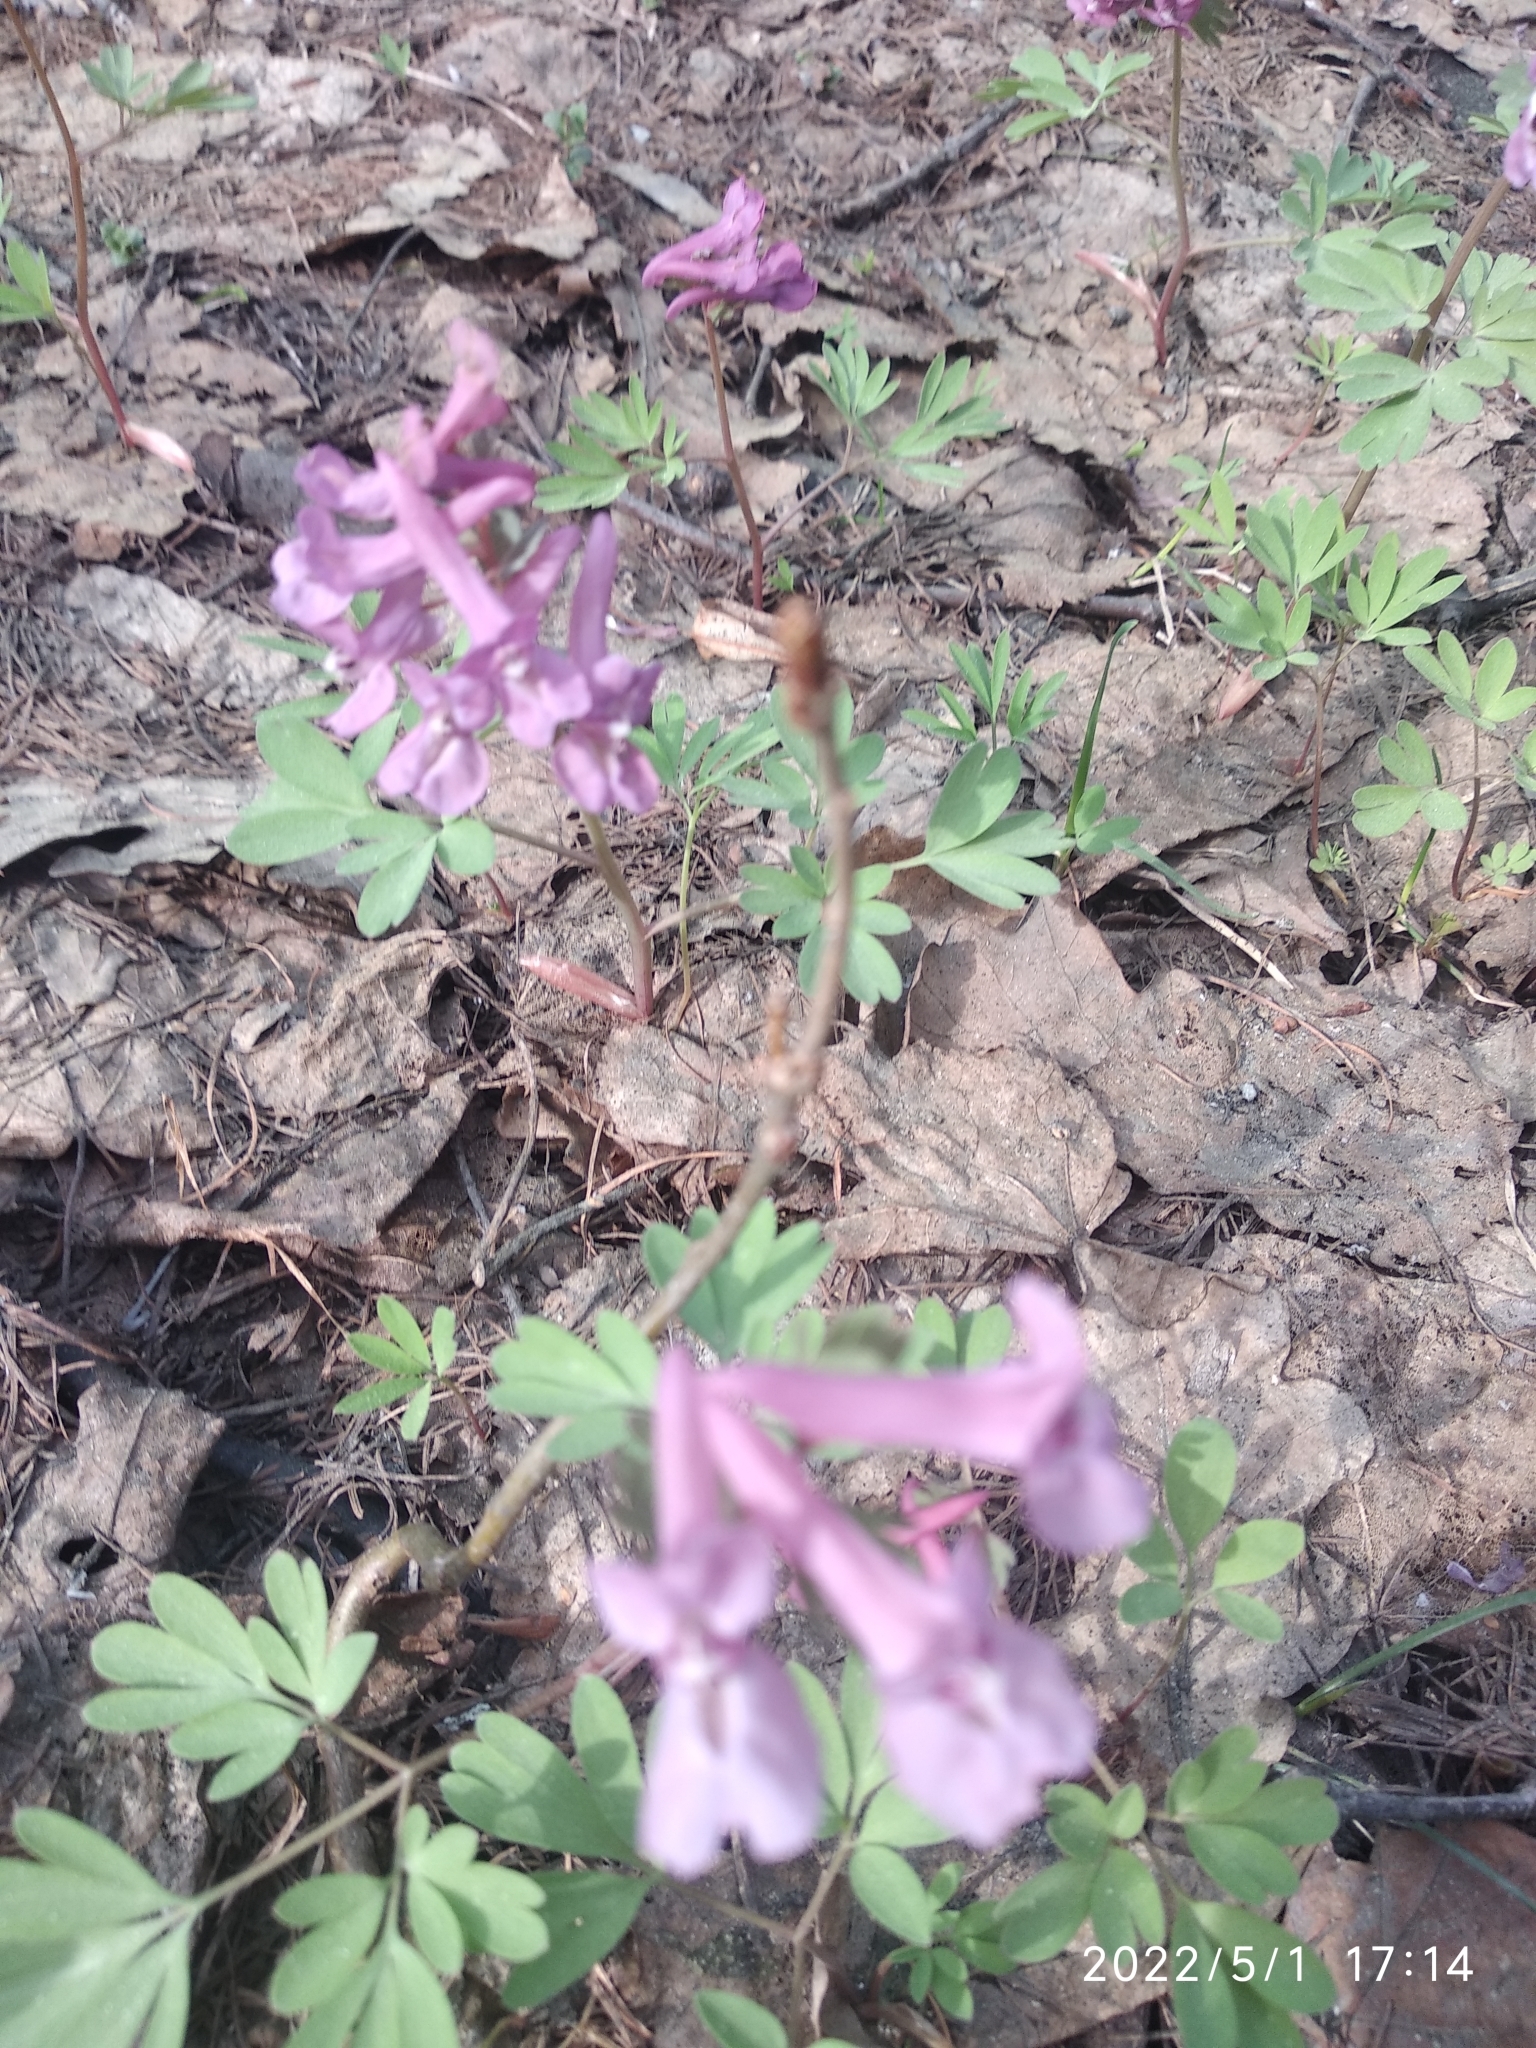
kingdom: Plantae
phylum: Tracheophyta
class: Magnoliopsida
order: Ranunculales
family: Papaveraceae
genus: Corydalis
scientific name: Corydalis solida
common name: Bird-in-a-bush
